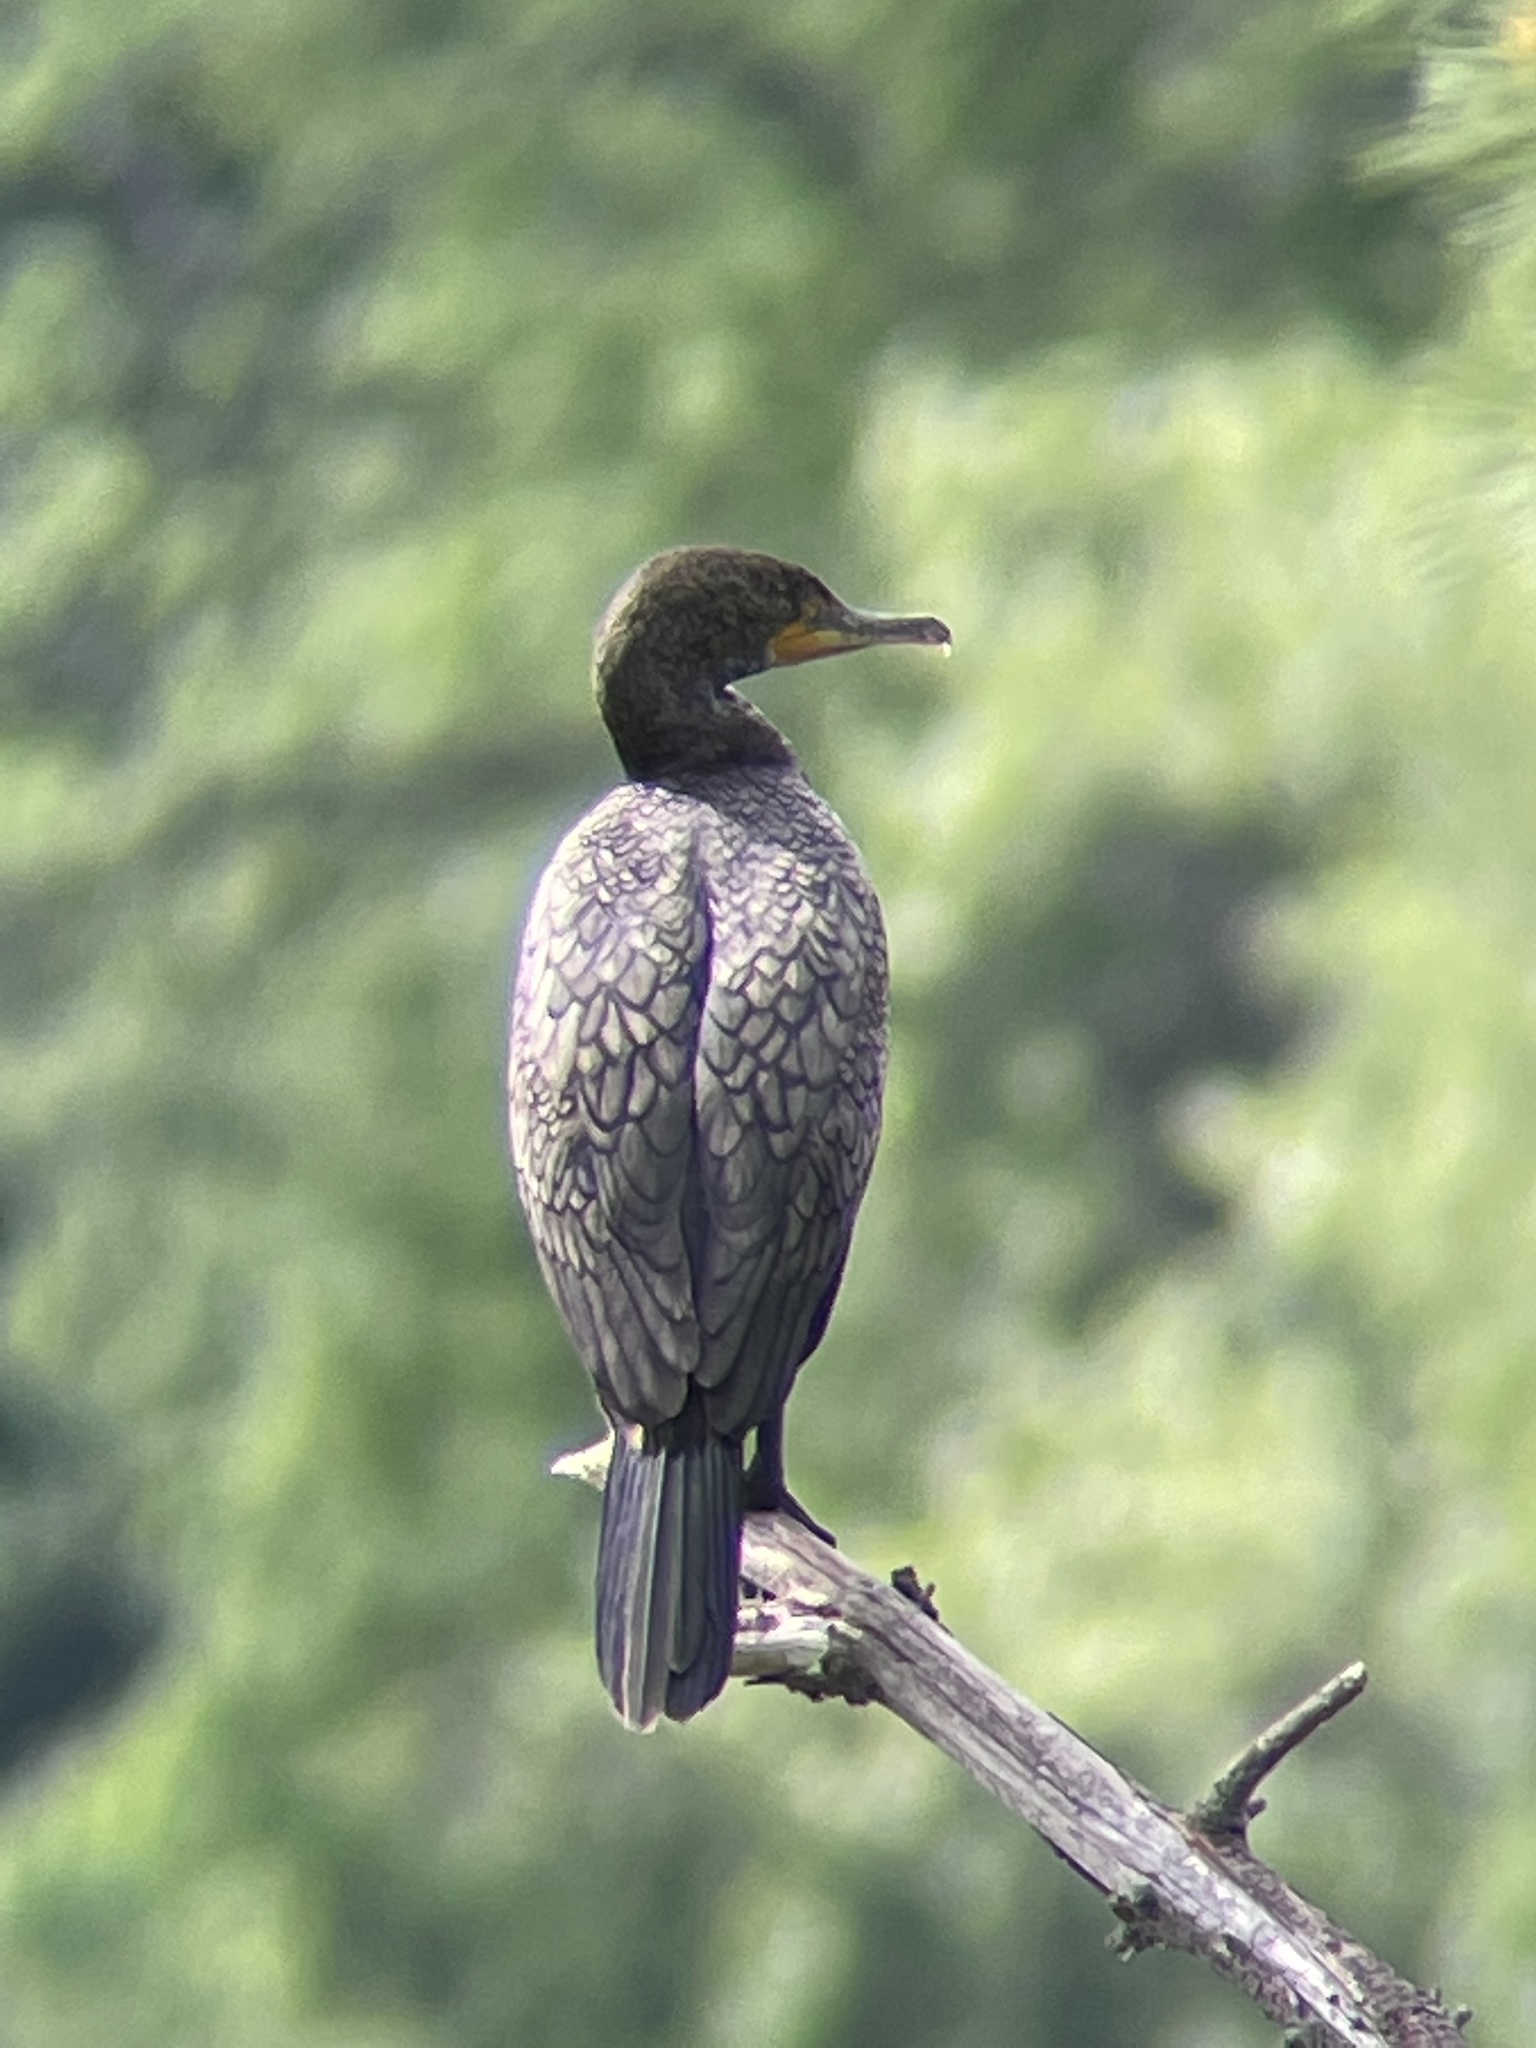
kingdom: Animalia
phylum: Chordata
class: Aves
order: Suliformes
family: Phalacrocoracidae
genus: Phalacrocorax
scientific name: Phalacrocorax auritus
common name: Double-crested cormorant
